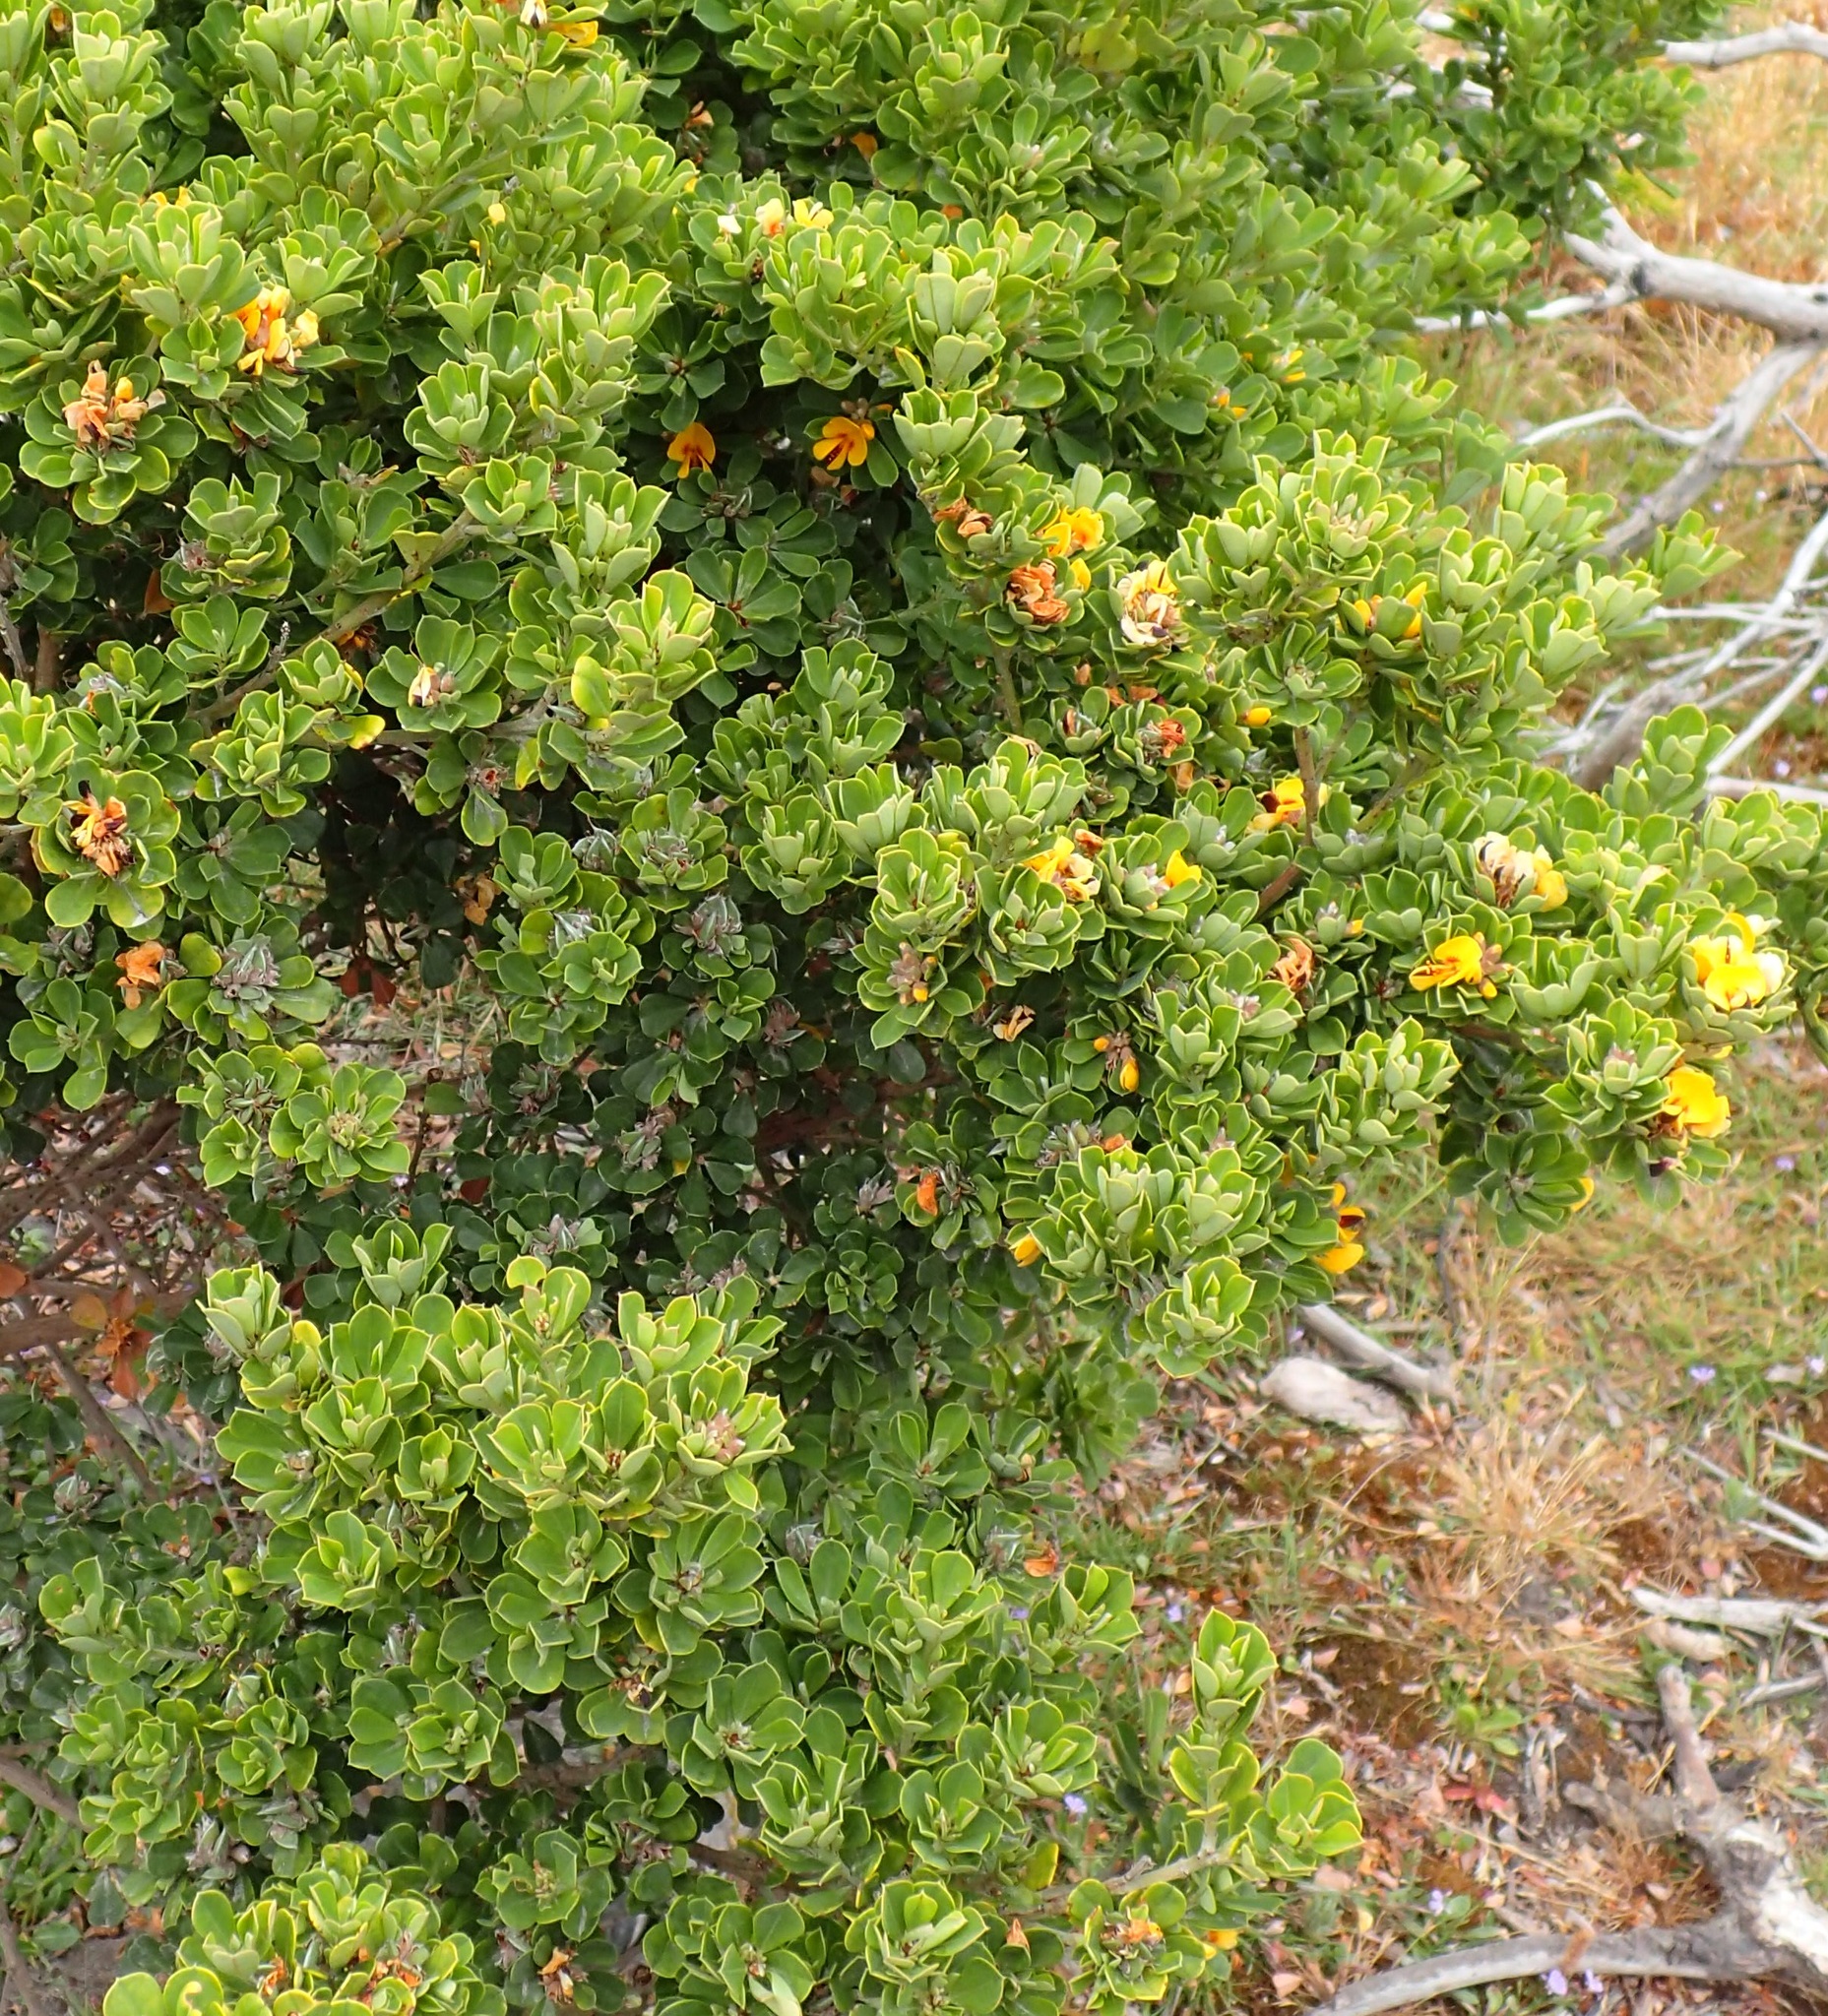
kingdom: Plantae
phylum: Tracheophyta
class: Magnoliopsida
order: Fabales
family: Fabaceae
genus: Pultenaea
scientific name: Pultenaea daphnoides
